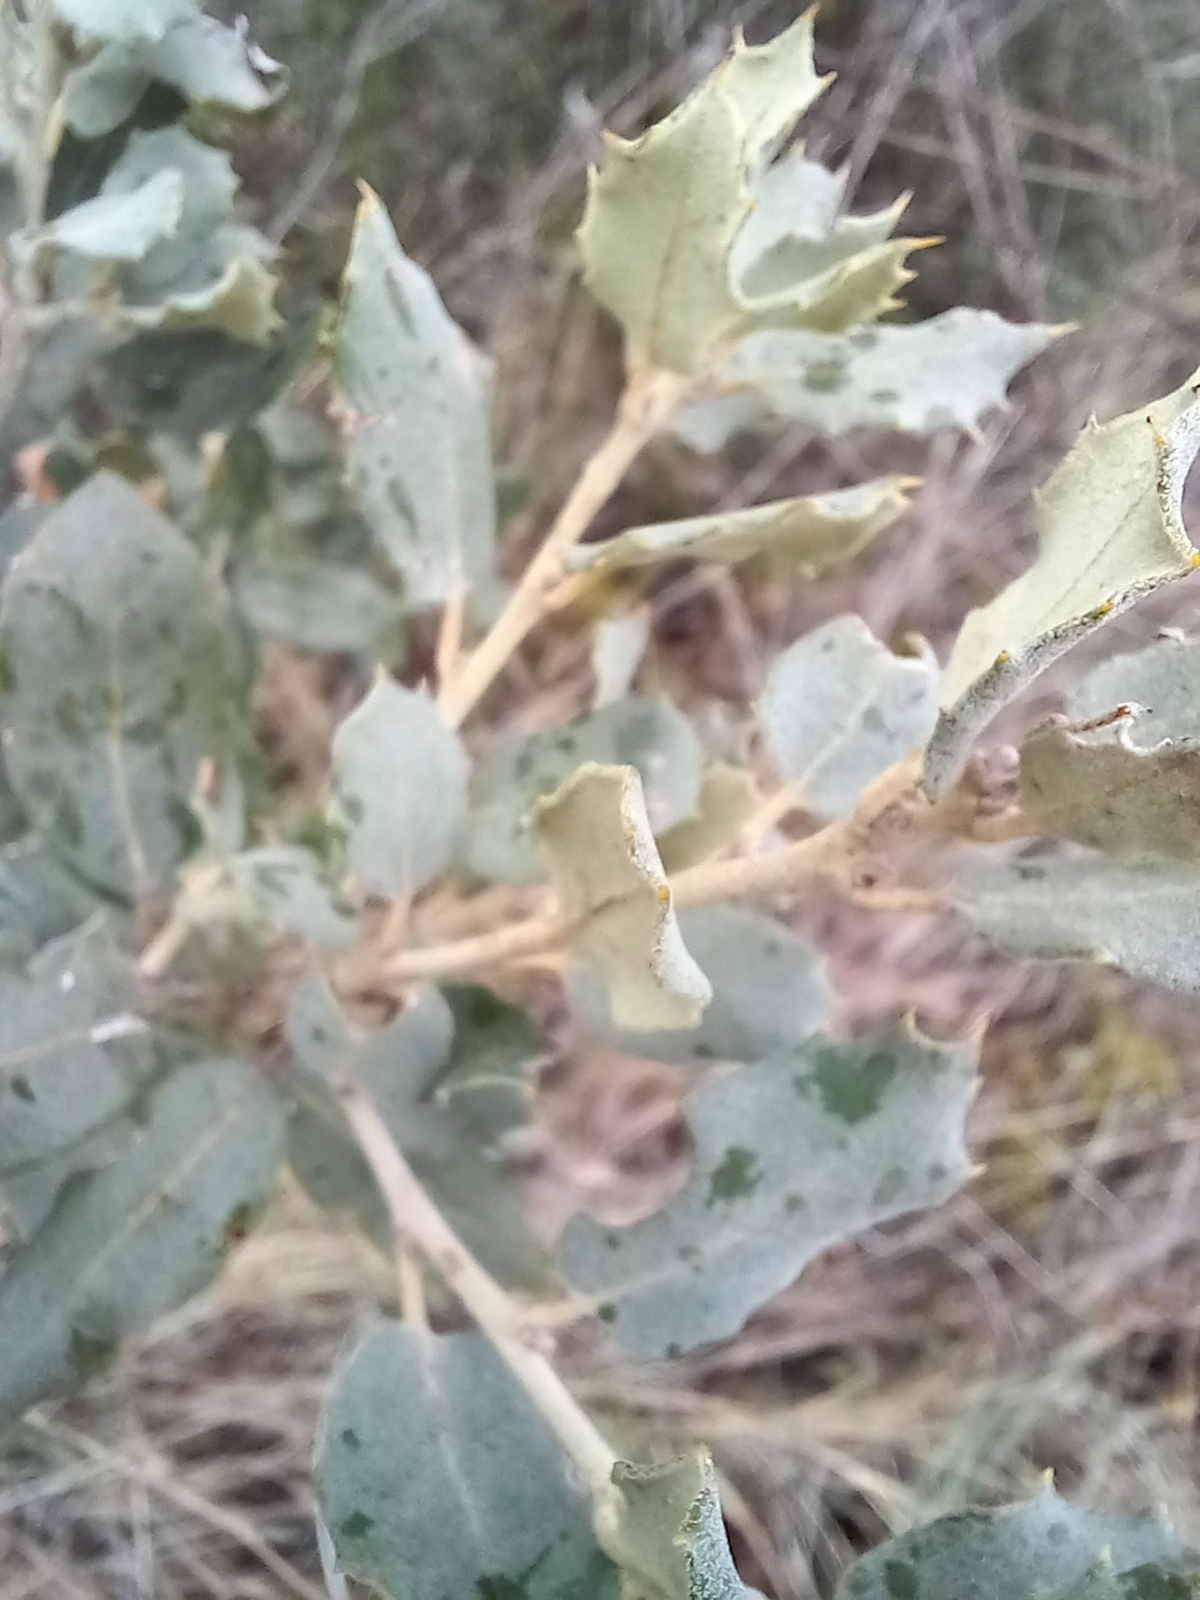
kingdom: Plantae
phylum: Tracheophyta
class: Magnoliopsida
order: Fagales
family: Fagaceae
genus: Quercus
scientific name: Quercus rotundifolia
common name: Holm oak
